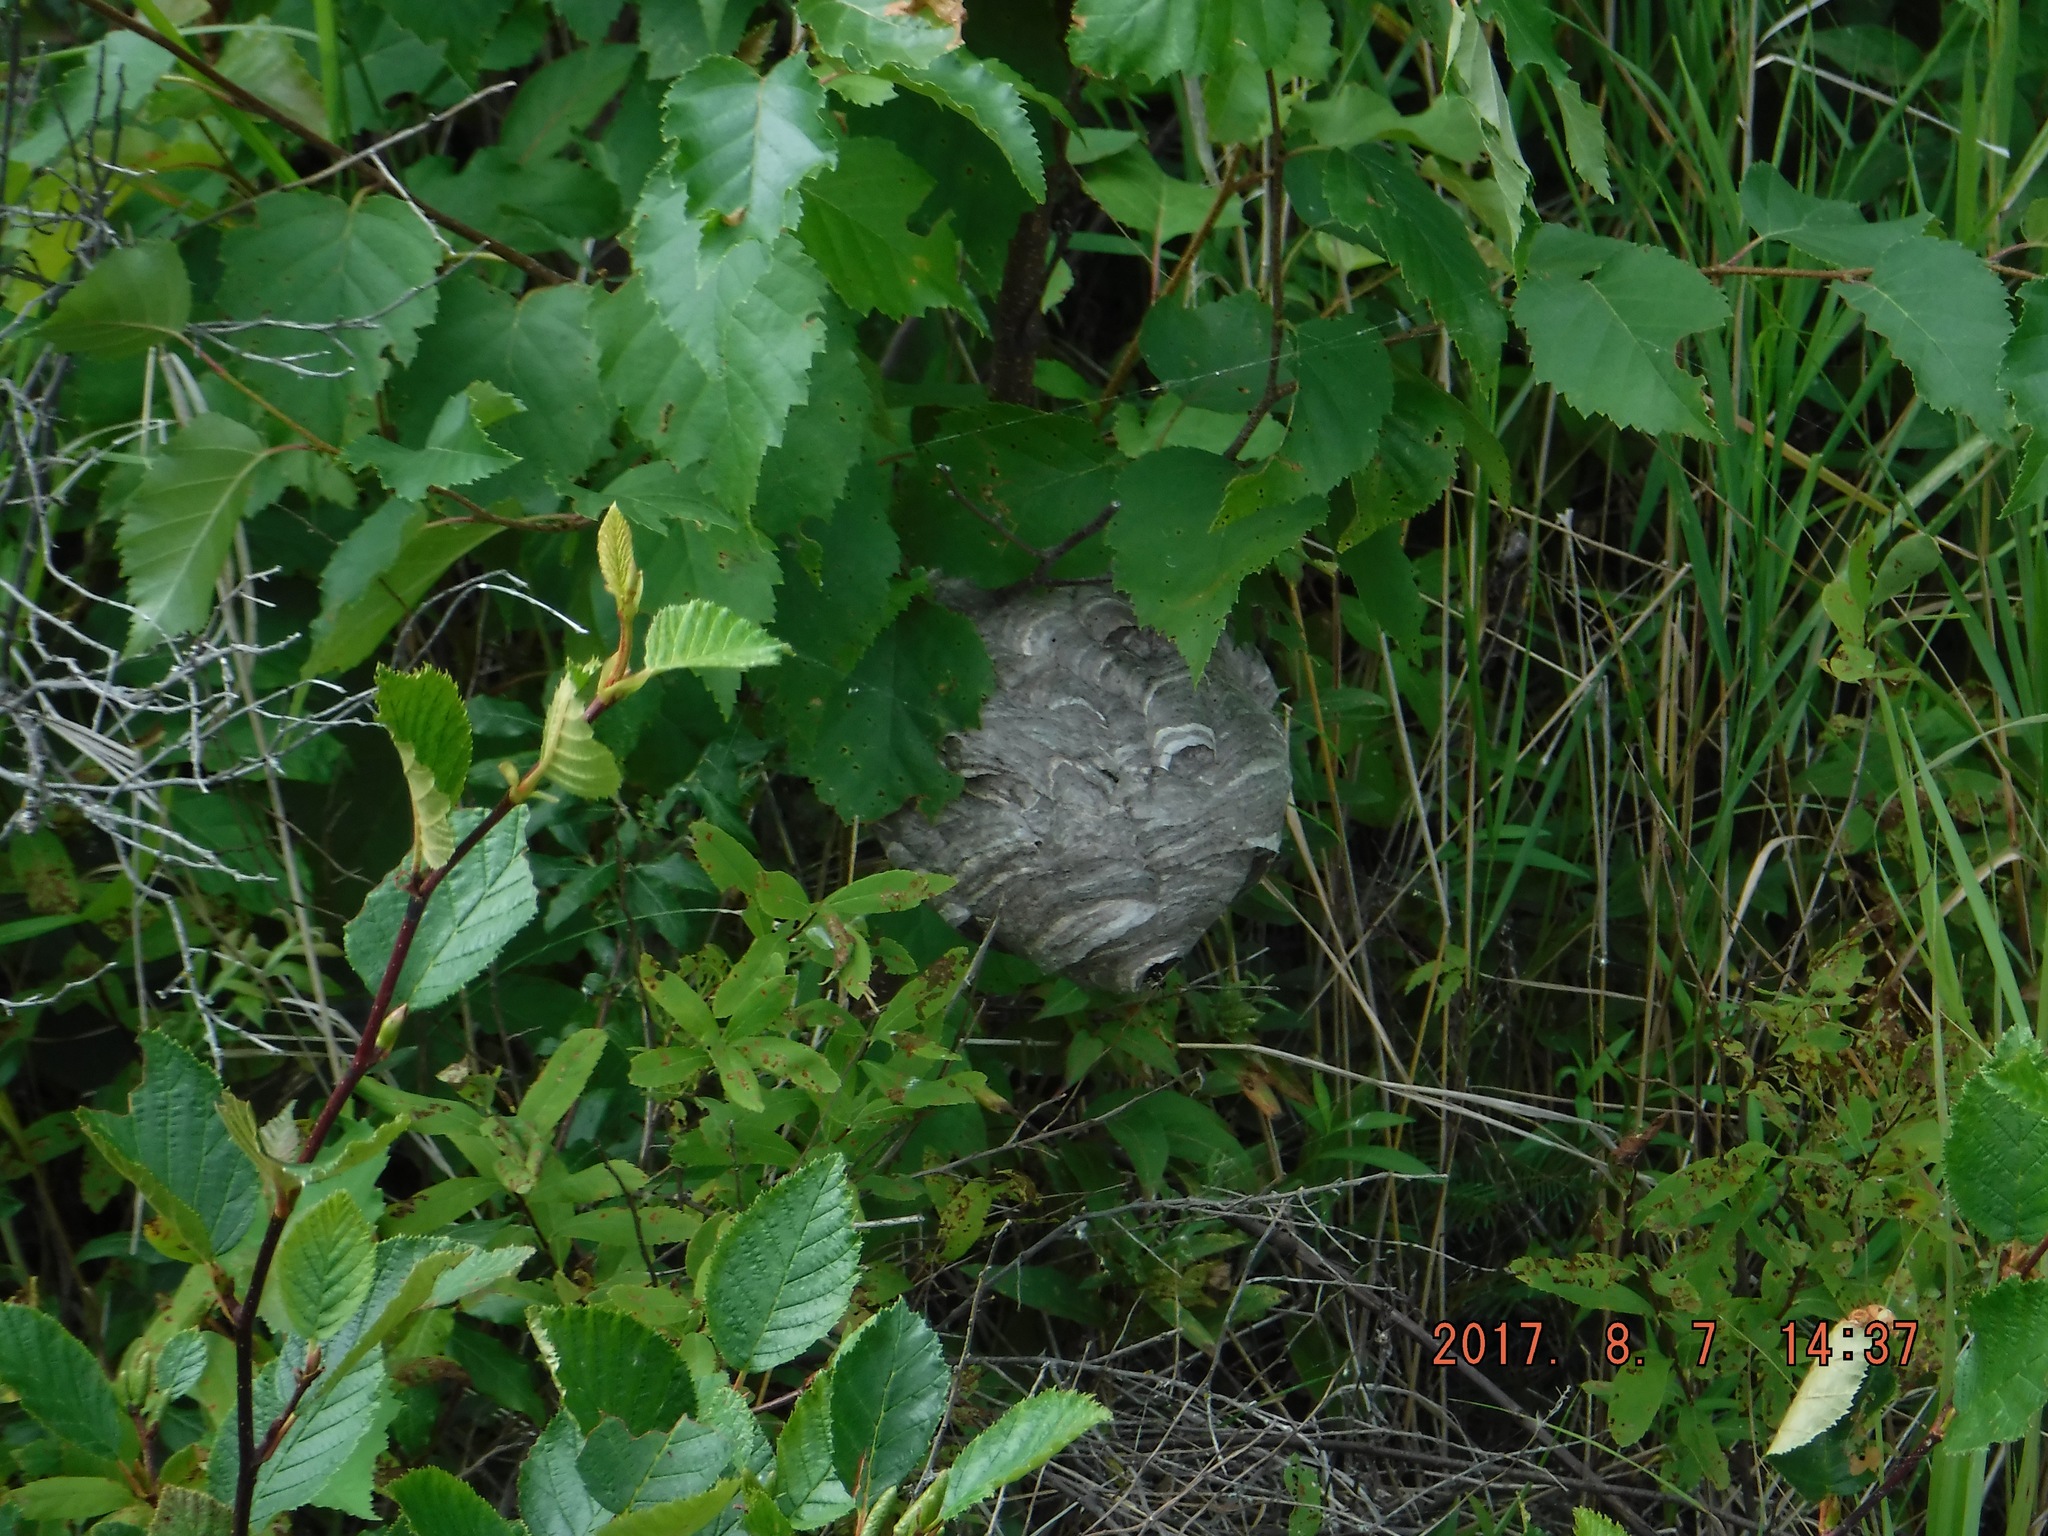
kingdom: Animalia
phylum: Arthropoda
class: Insecta
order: Hymenoptera
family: Vespidae
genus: Dolichovespula
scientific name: Dolichovespula maculata
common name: Bald-faced hornet
